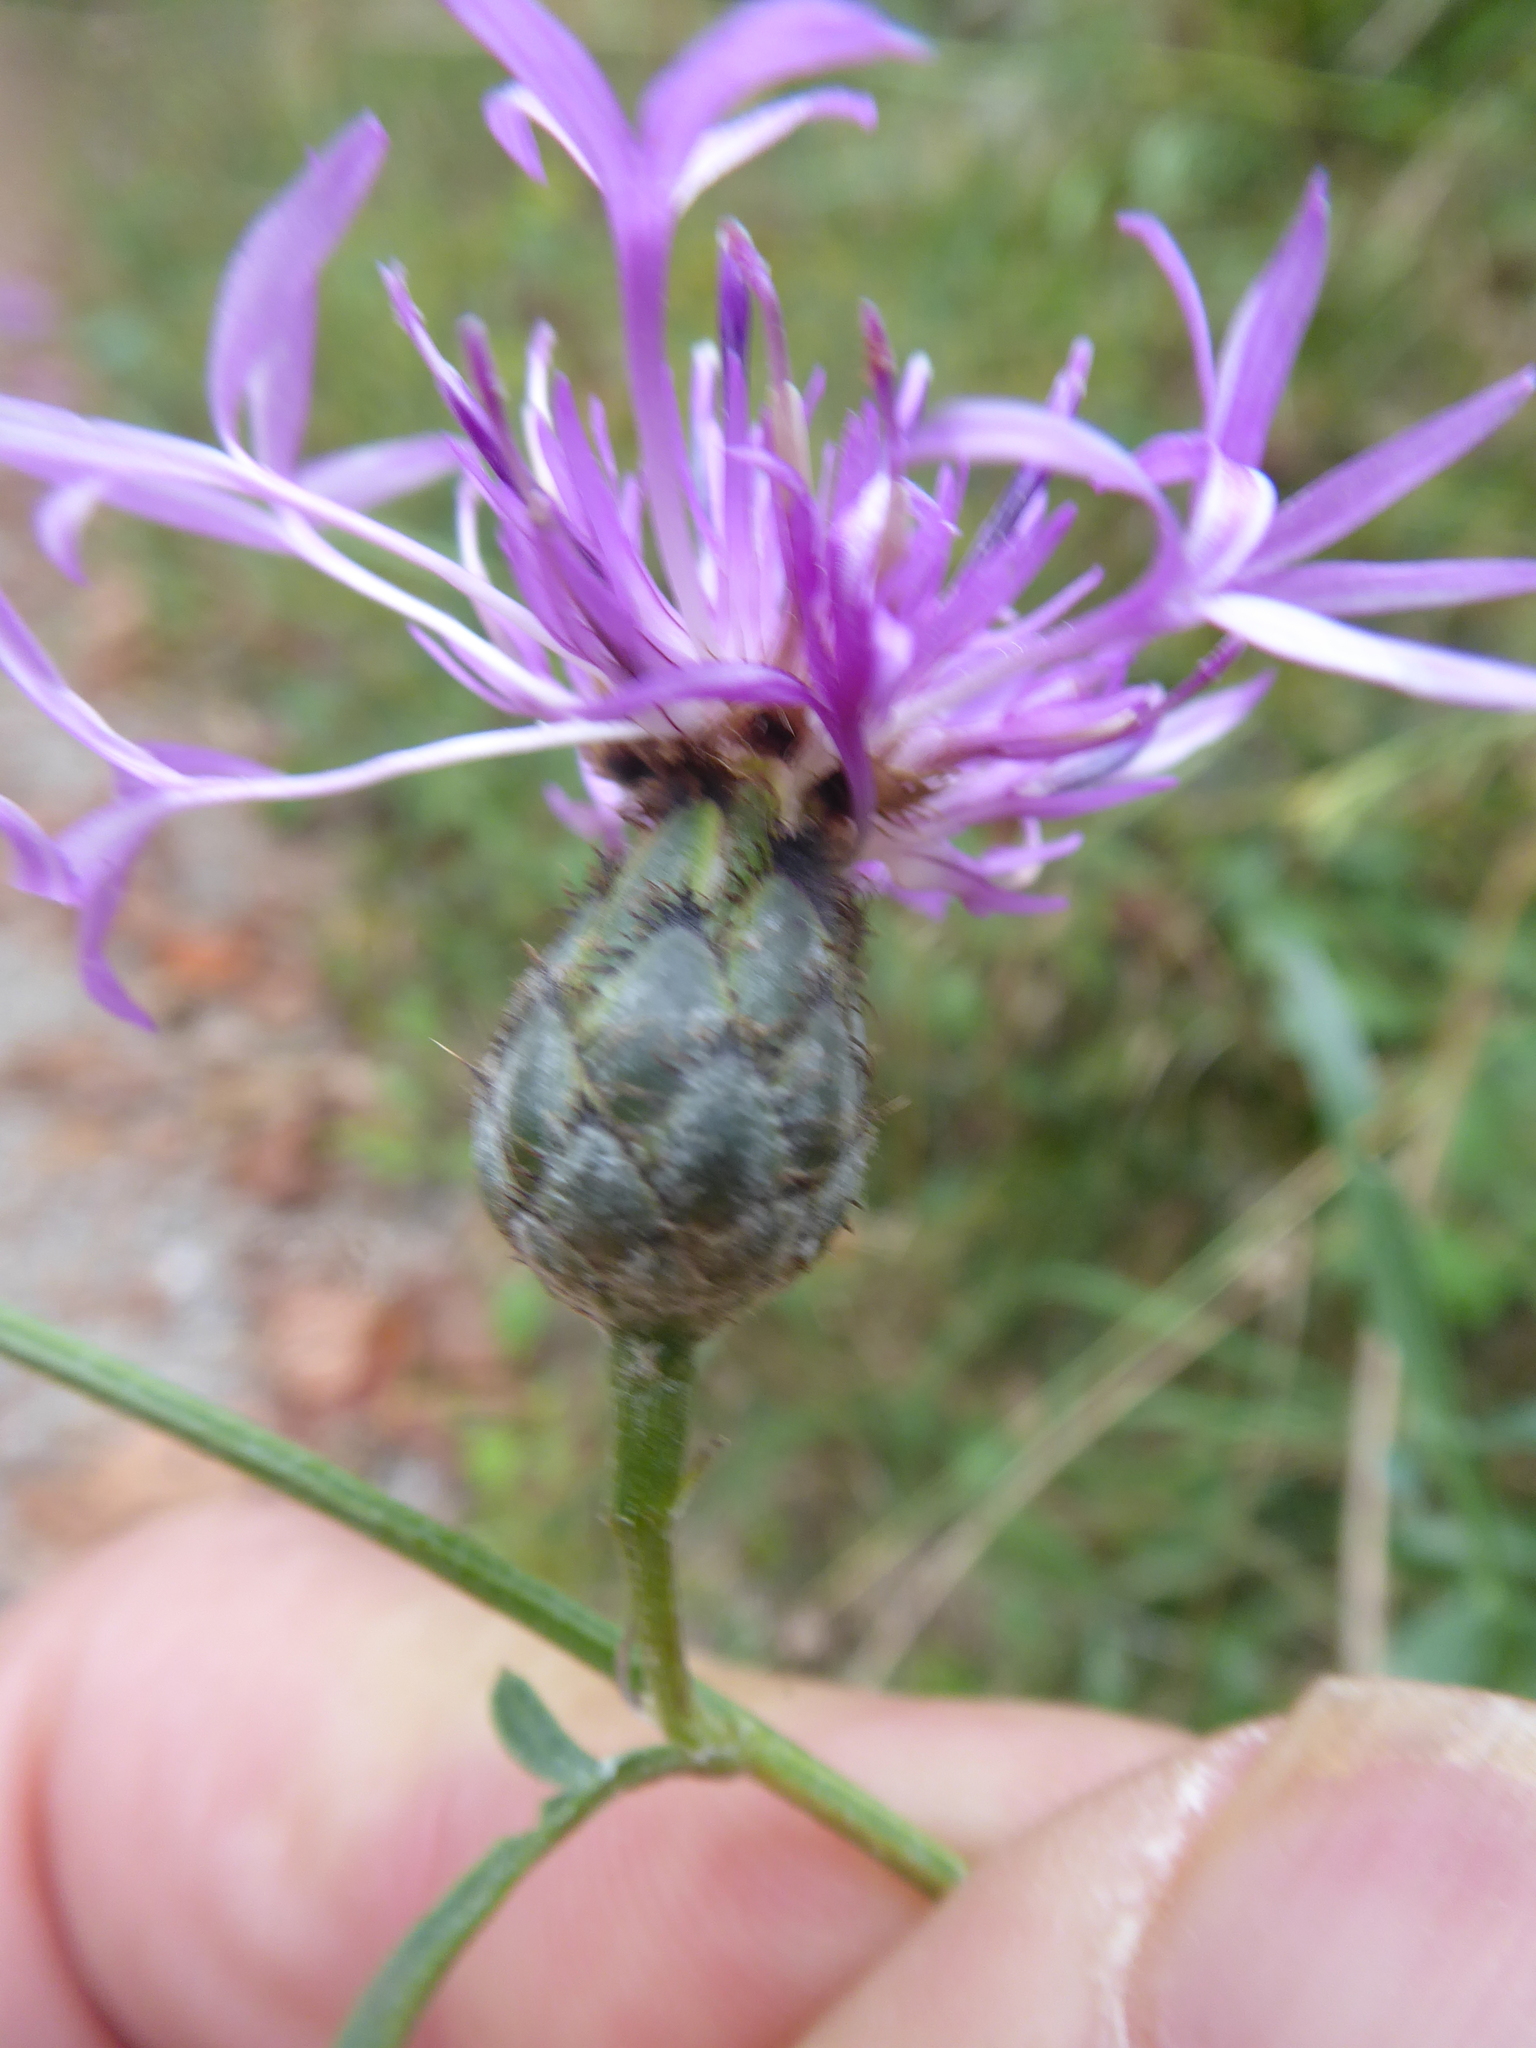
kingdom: Plantae
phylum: Tracheophyta
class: Magnoliopsida
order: Asterales
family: Asteraceae
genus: Centaurea
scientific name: Centaurea scabiosa
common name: Greater knapweed
